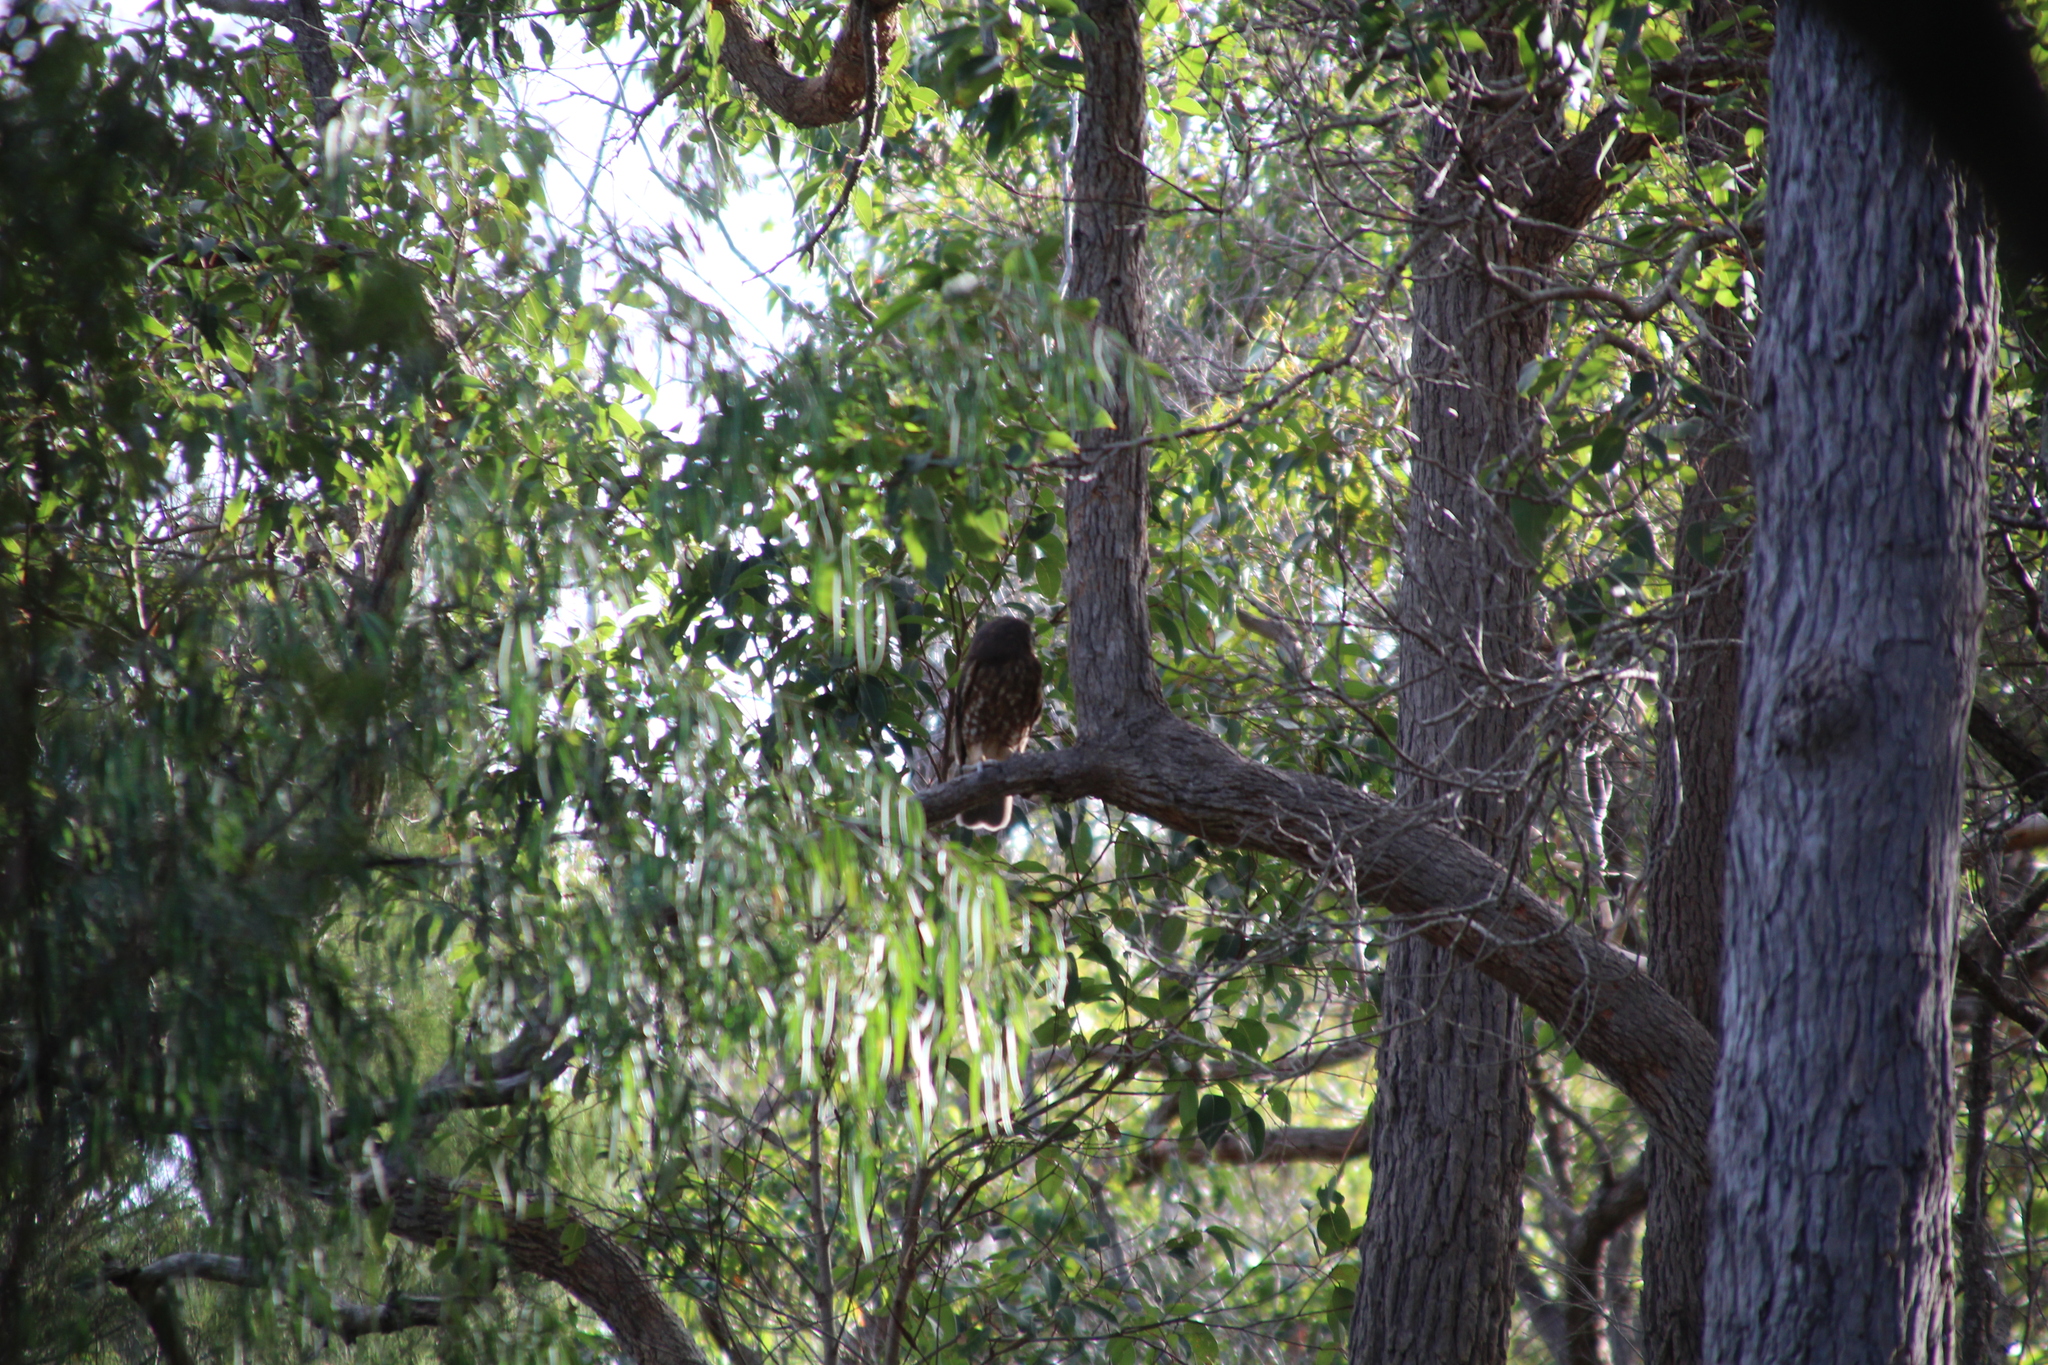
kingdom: Animalia
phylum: Chordata
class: Aves
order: Strigiformes
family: Strigidae
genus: Ninox
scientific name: Ninox boobook
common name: Southern boobook
